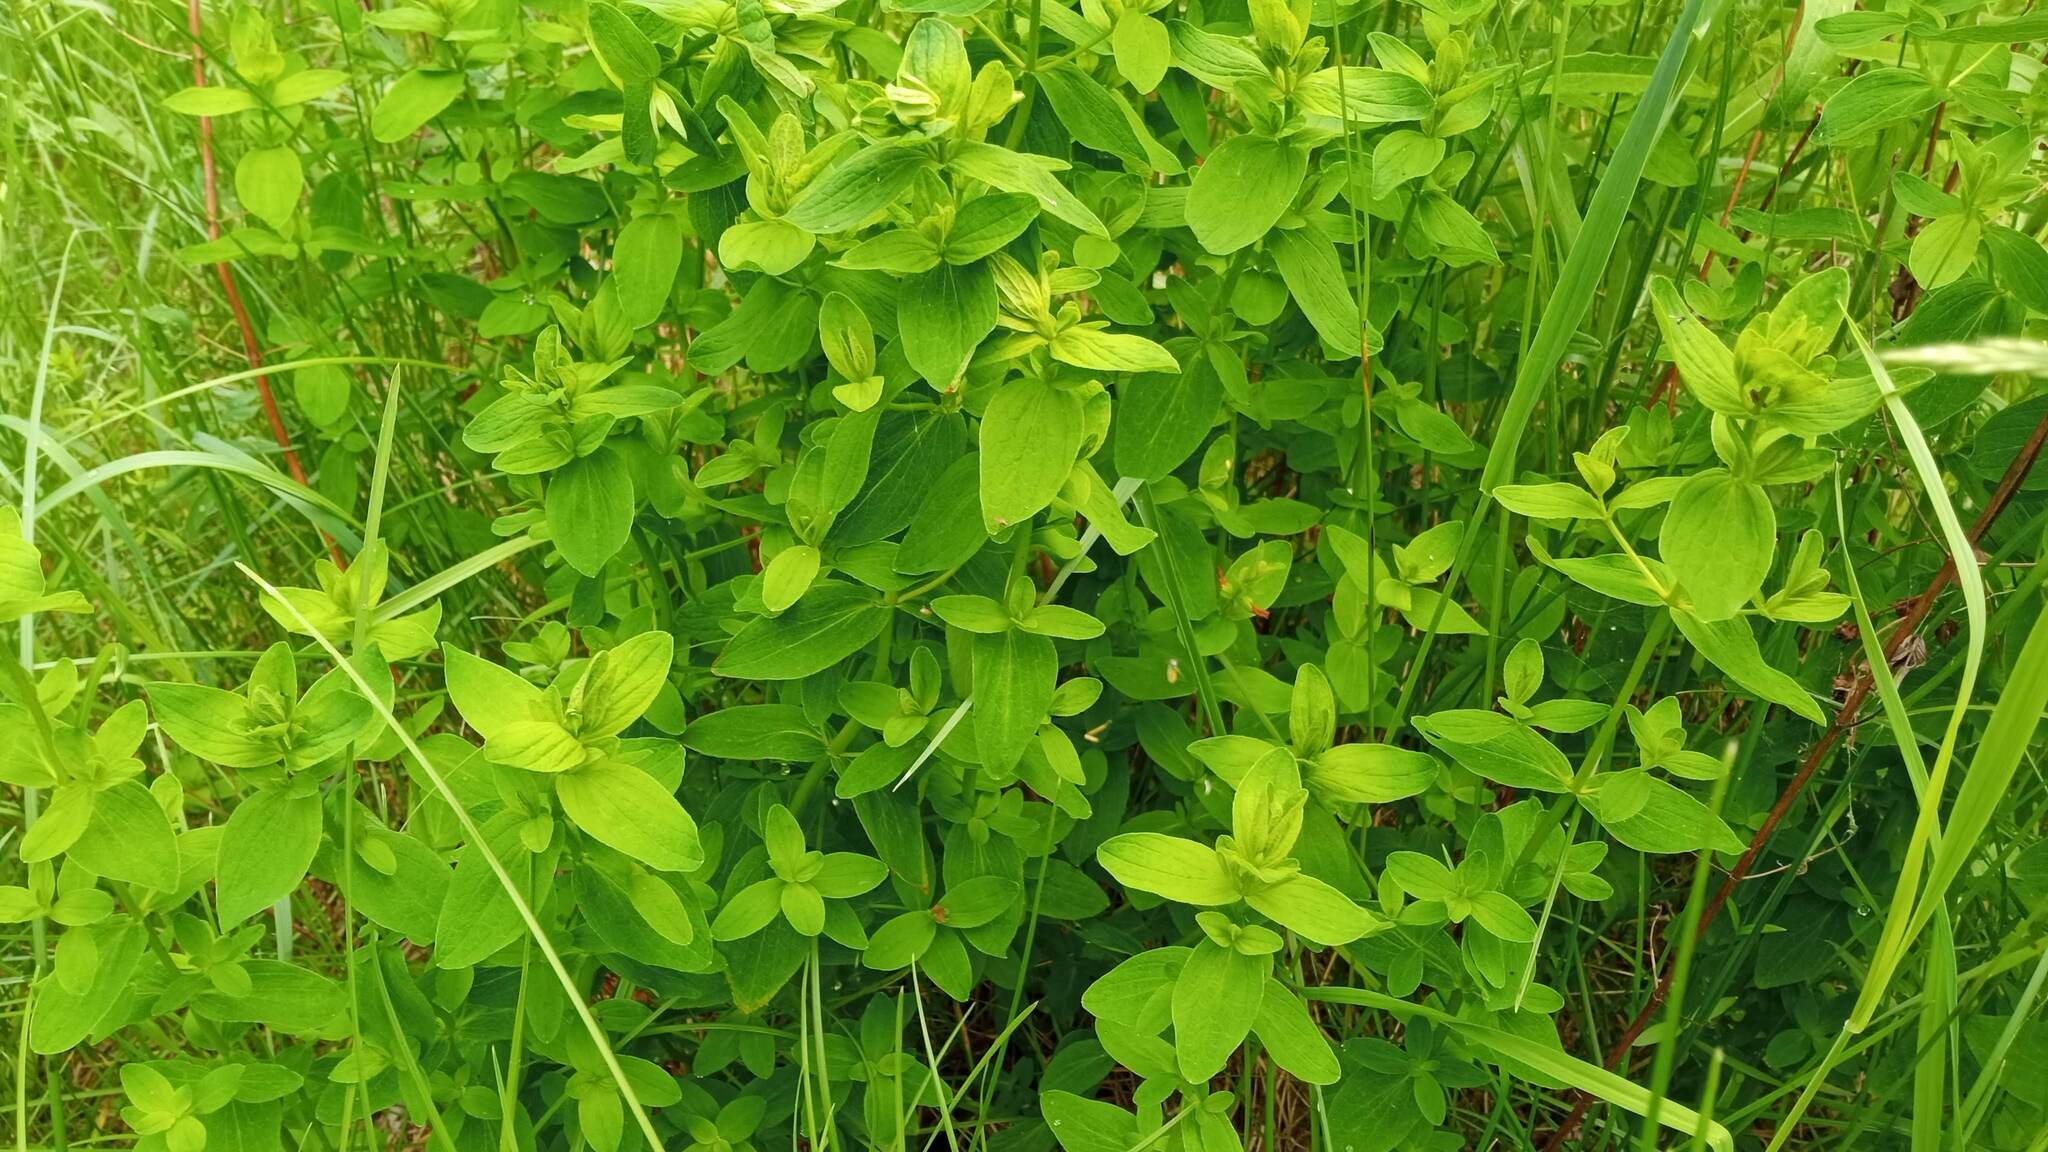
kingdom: Plantae
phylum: Tracheophyta
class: Magnoliopsida
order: Malpighiales
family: Hypericaceae
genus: Hypericum
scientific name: Hypericum maculatum
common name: Imperforate st. john's-wort
